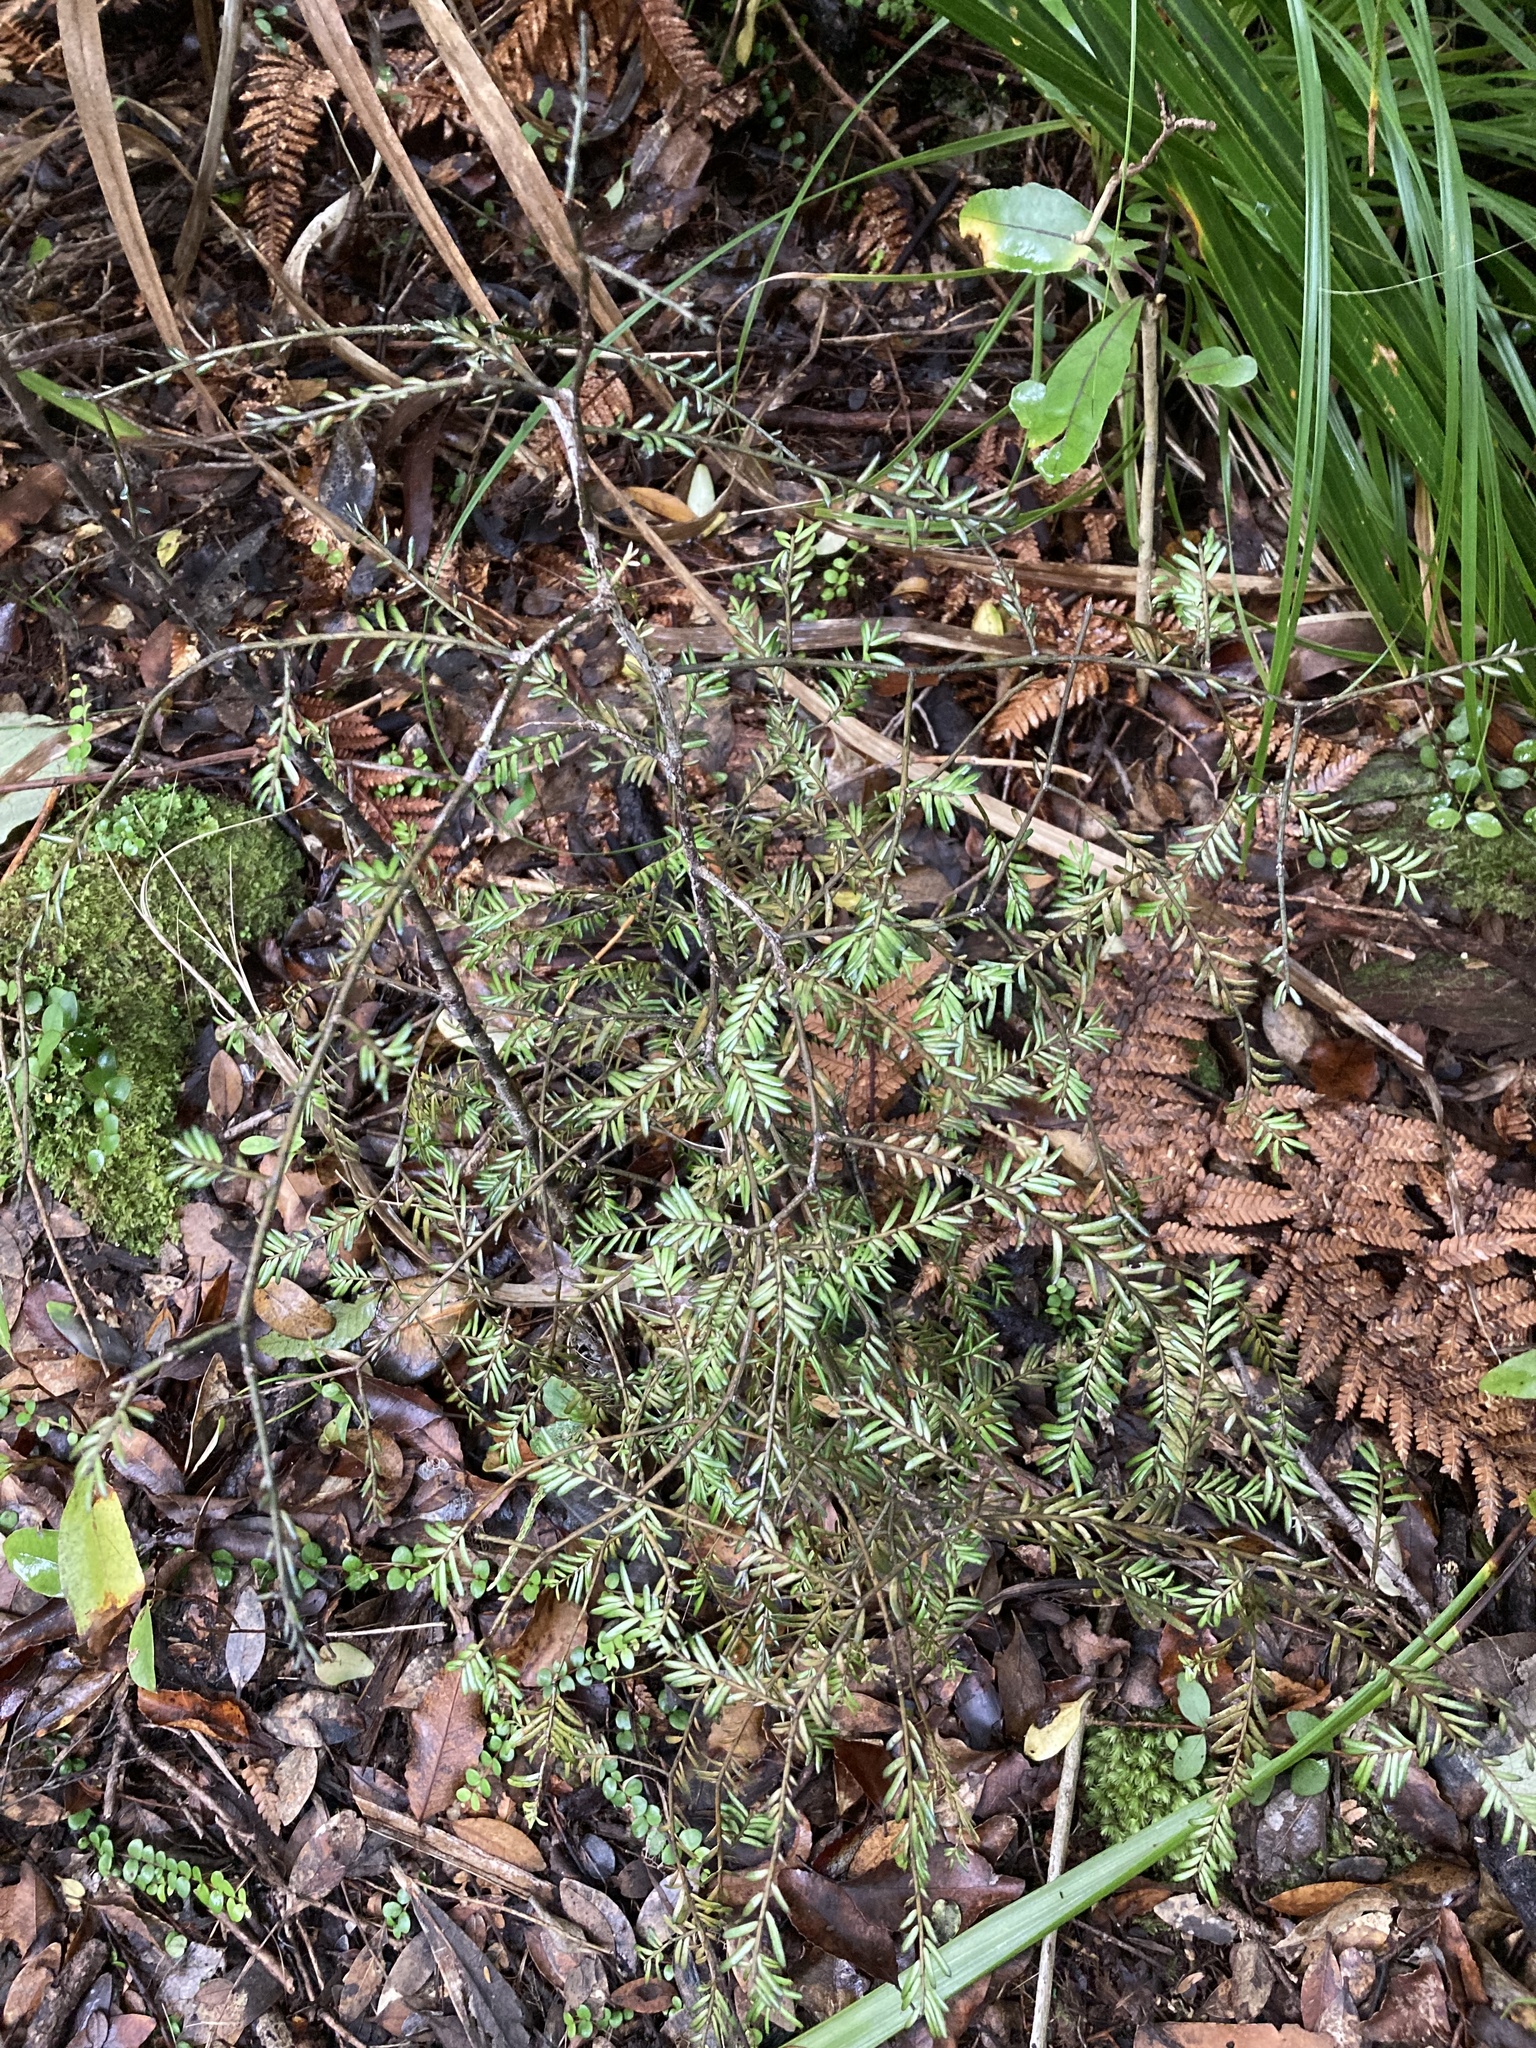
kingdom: Plantae
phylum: Tracheophyta
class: Pinopsida
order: Pinales
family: Podocarpaceae
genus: Prumnopitys
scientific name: Prumnopitys taxifolia
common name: Matai
